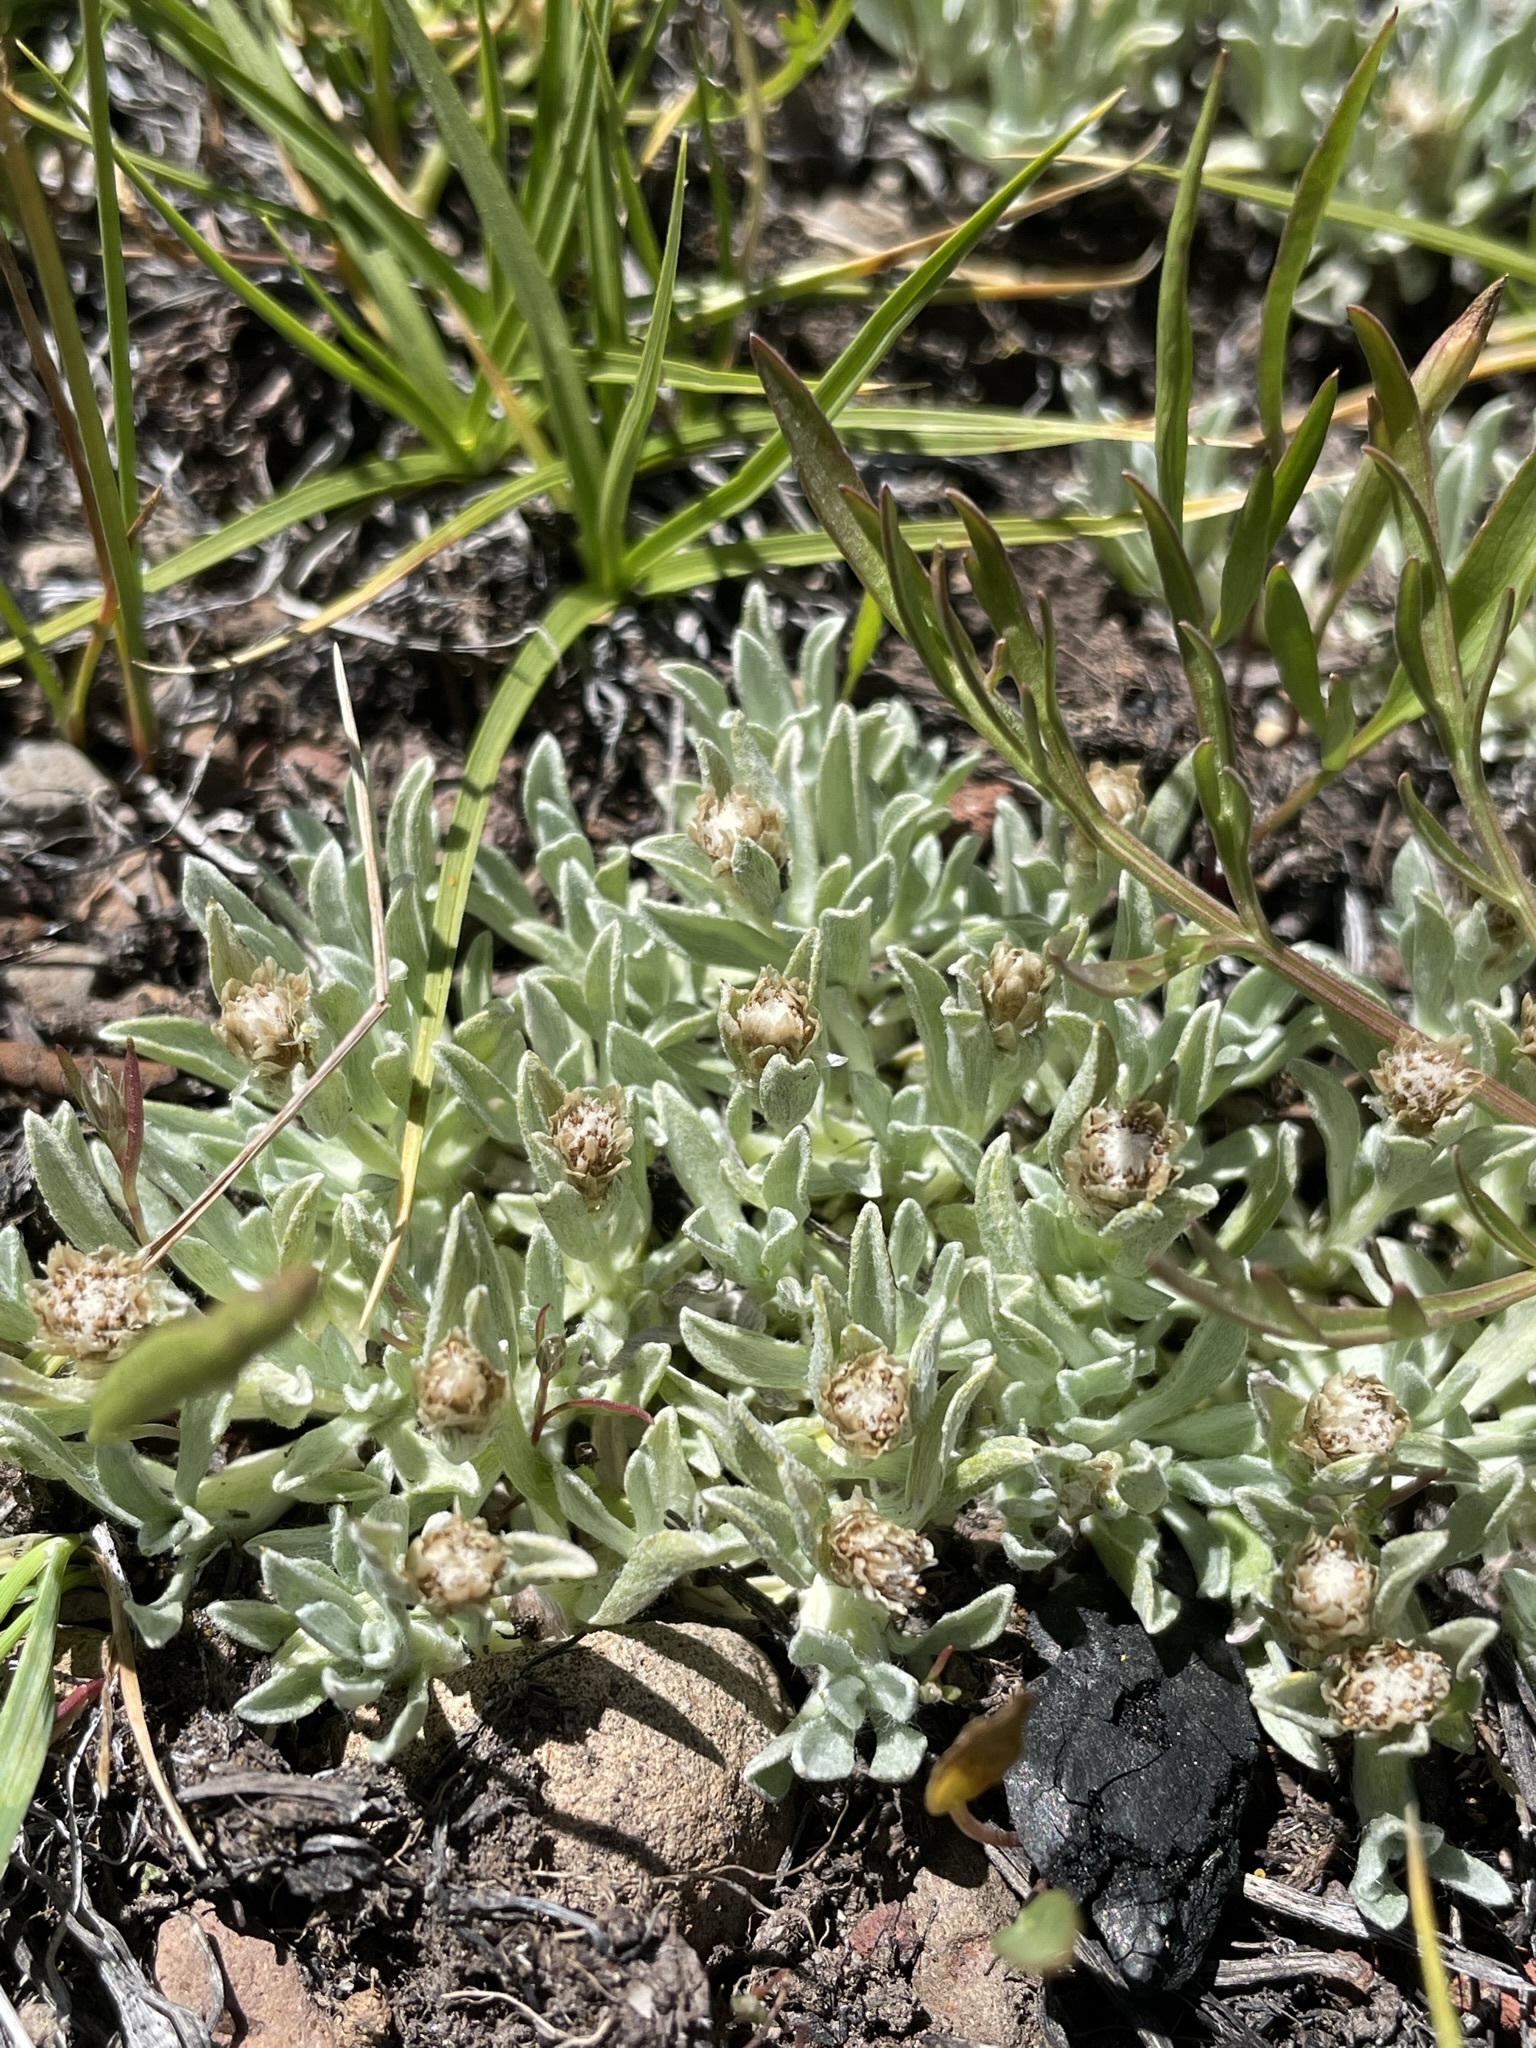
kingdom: Plantae
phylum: Tracheophyta
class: Magnoliopsida
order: Asterales
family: Asteraceae
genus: Antennaria
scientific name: Antennaria dimorpha
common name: Cushion pussytoes
